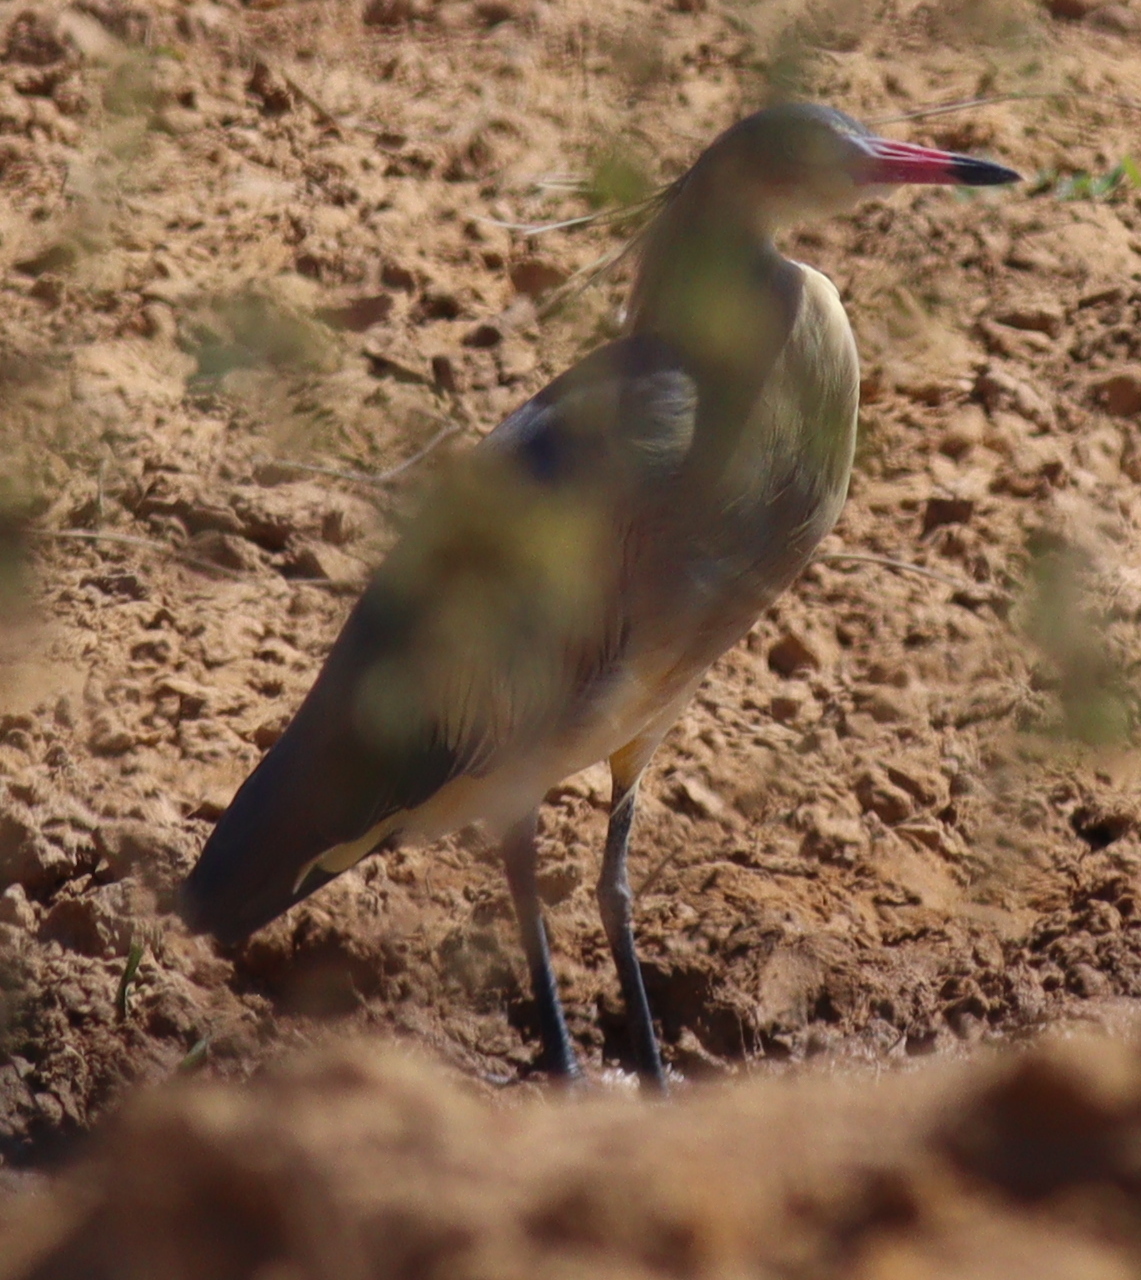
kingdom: Animalia
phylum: Chordata
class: Aves
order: Pelecaniformes
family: Ardeidae
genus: Syrigma
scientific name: Syrigma sibilatrix
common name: Whistling heron
